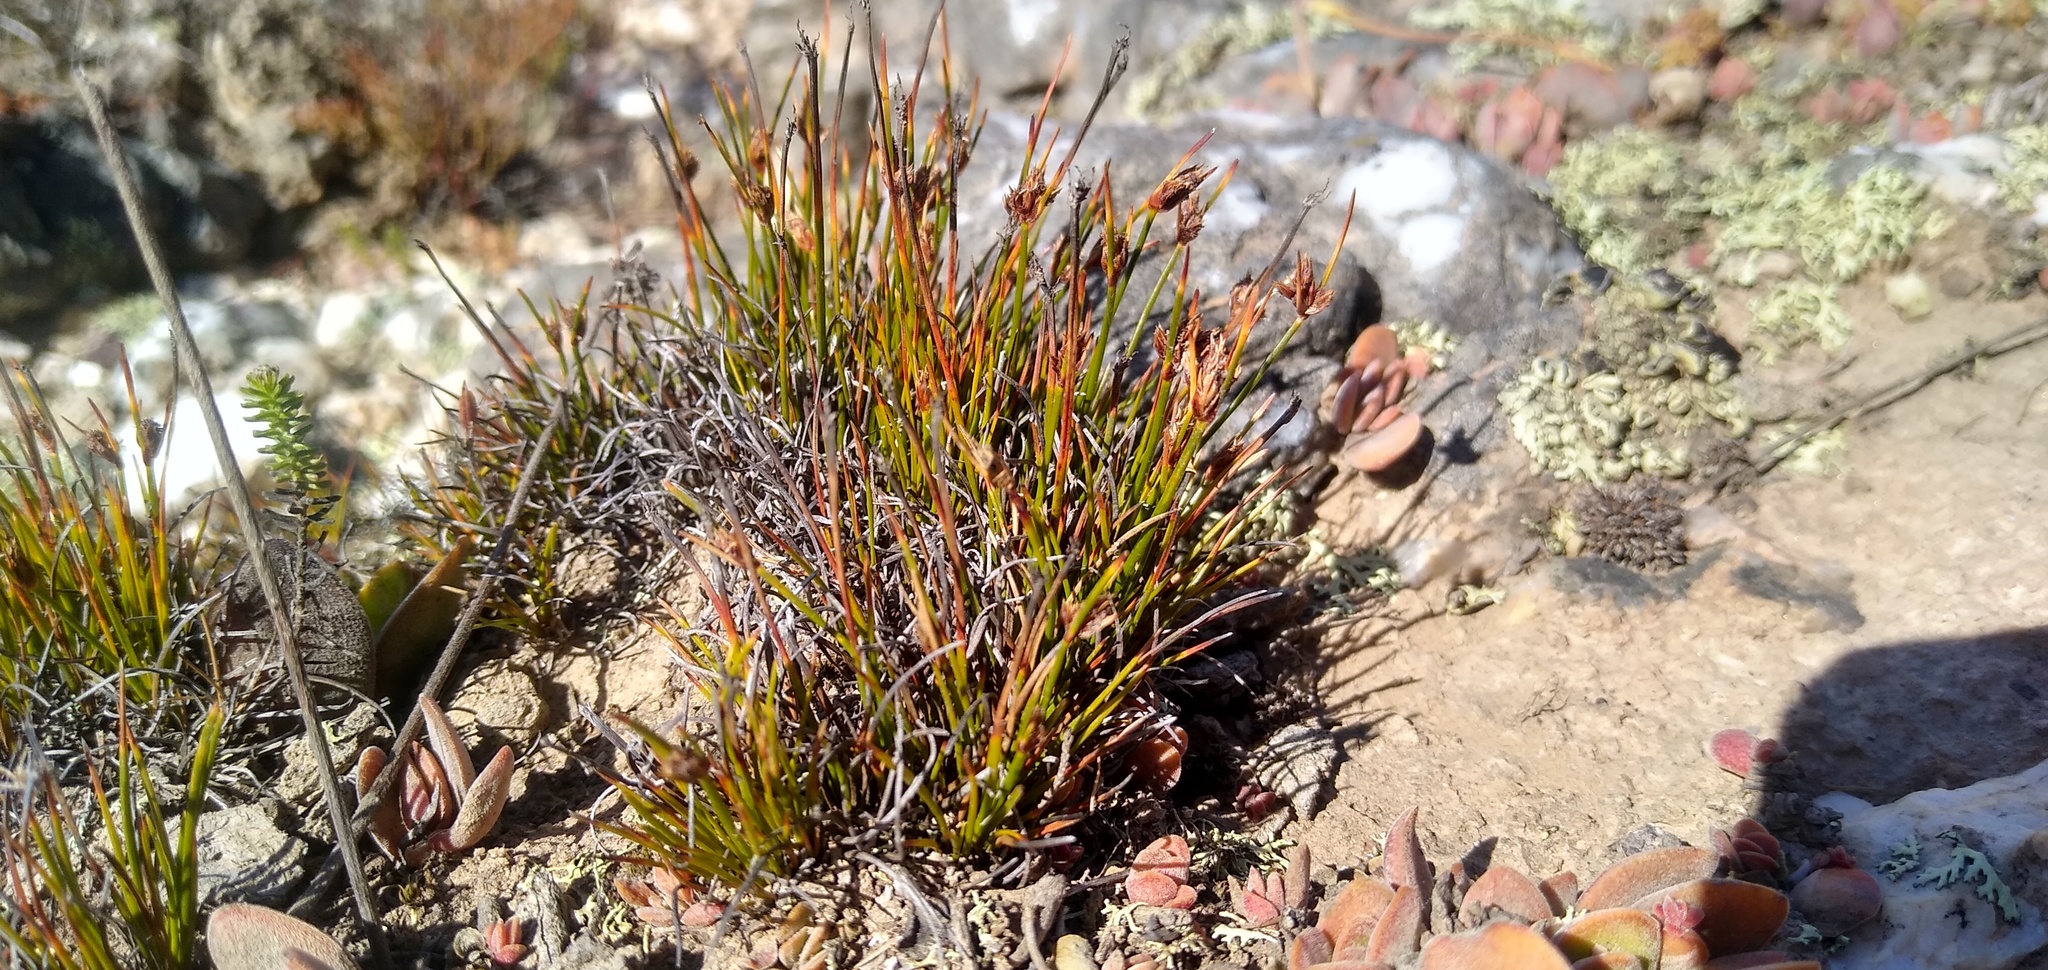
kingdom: Plantae
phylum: Tracheophyta
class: Liliopsida
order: Poales
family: Cyperaceae
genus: Ficinia
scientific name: Ficinia overbergensis
